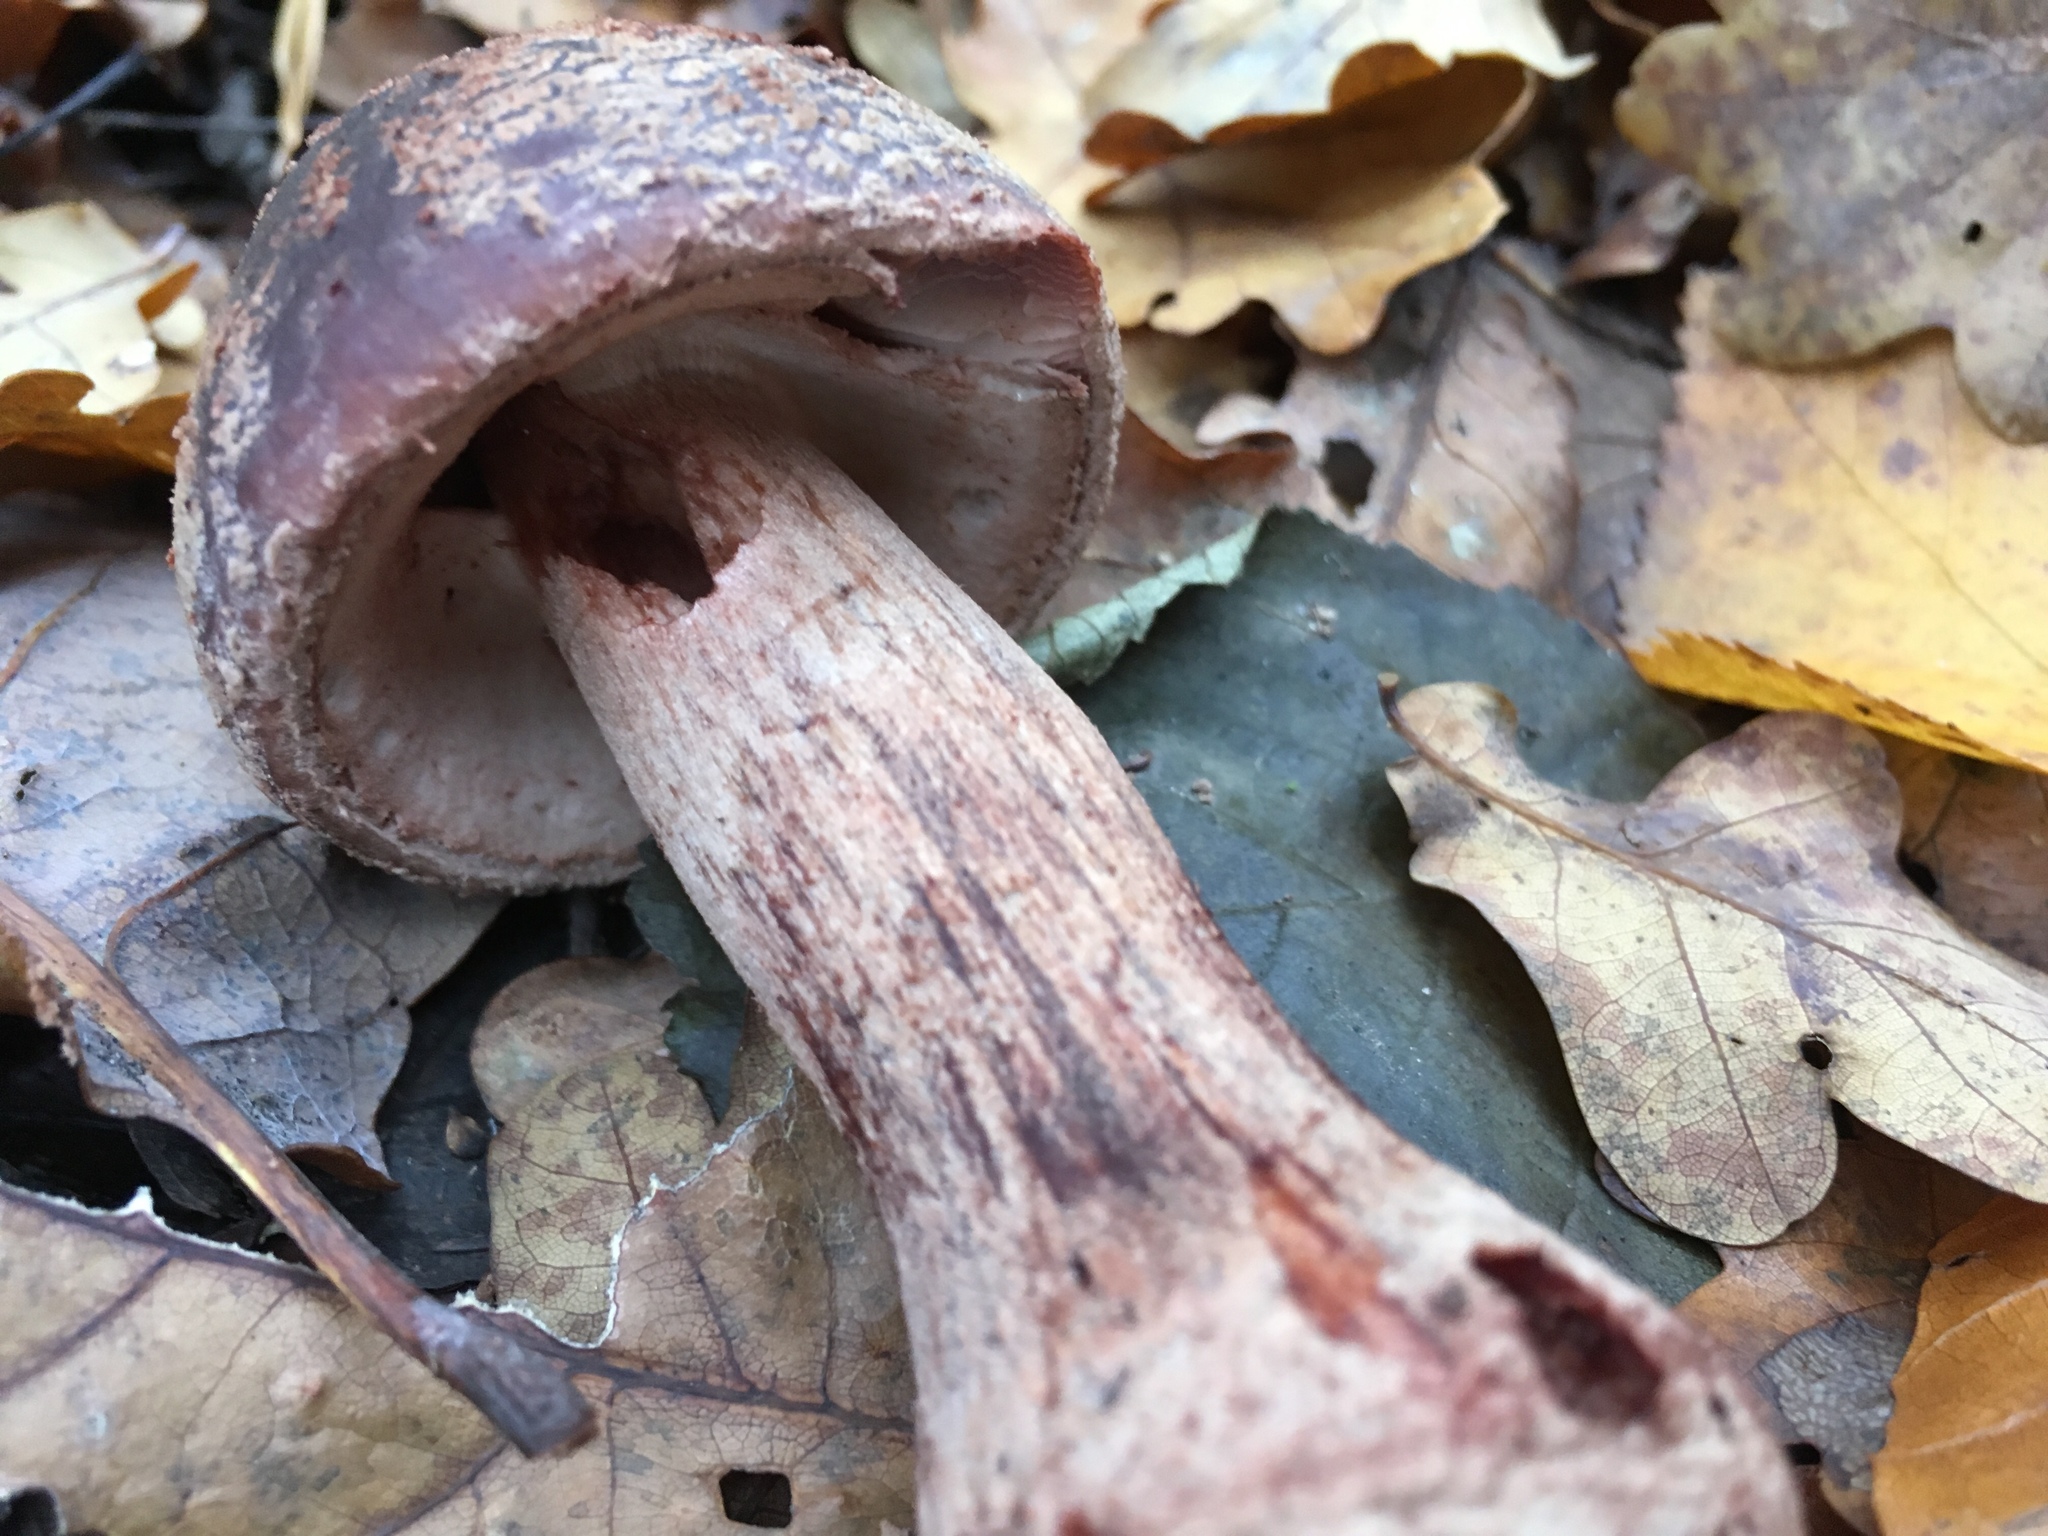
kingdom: Fungi
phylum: Basidiomycota
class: Agaricomycetes
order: Agaricales
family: Amanitaceae
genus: Amanita
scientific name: Amanita rubescens
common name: Blusher
